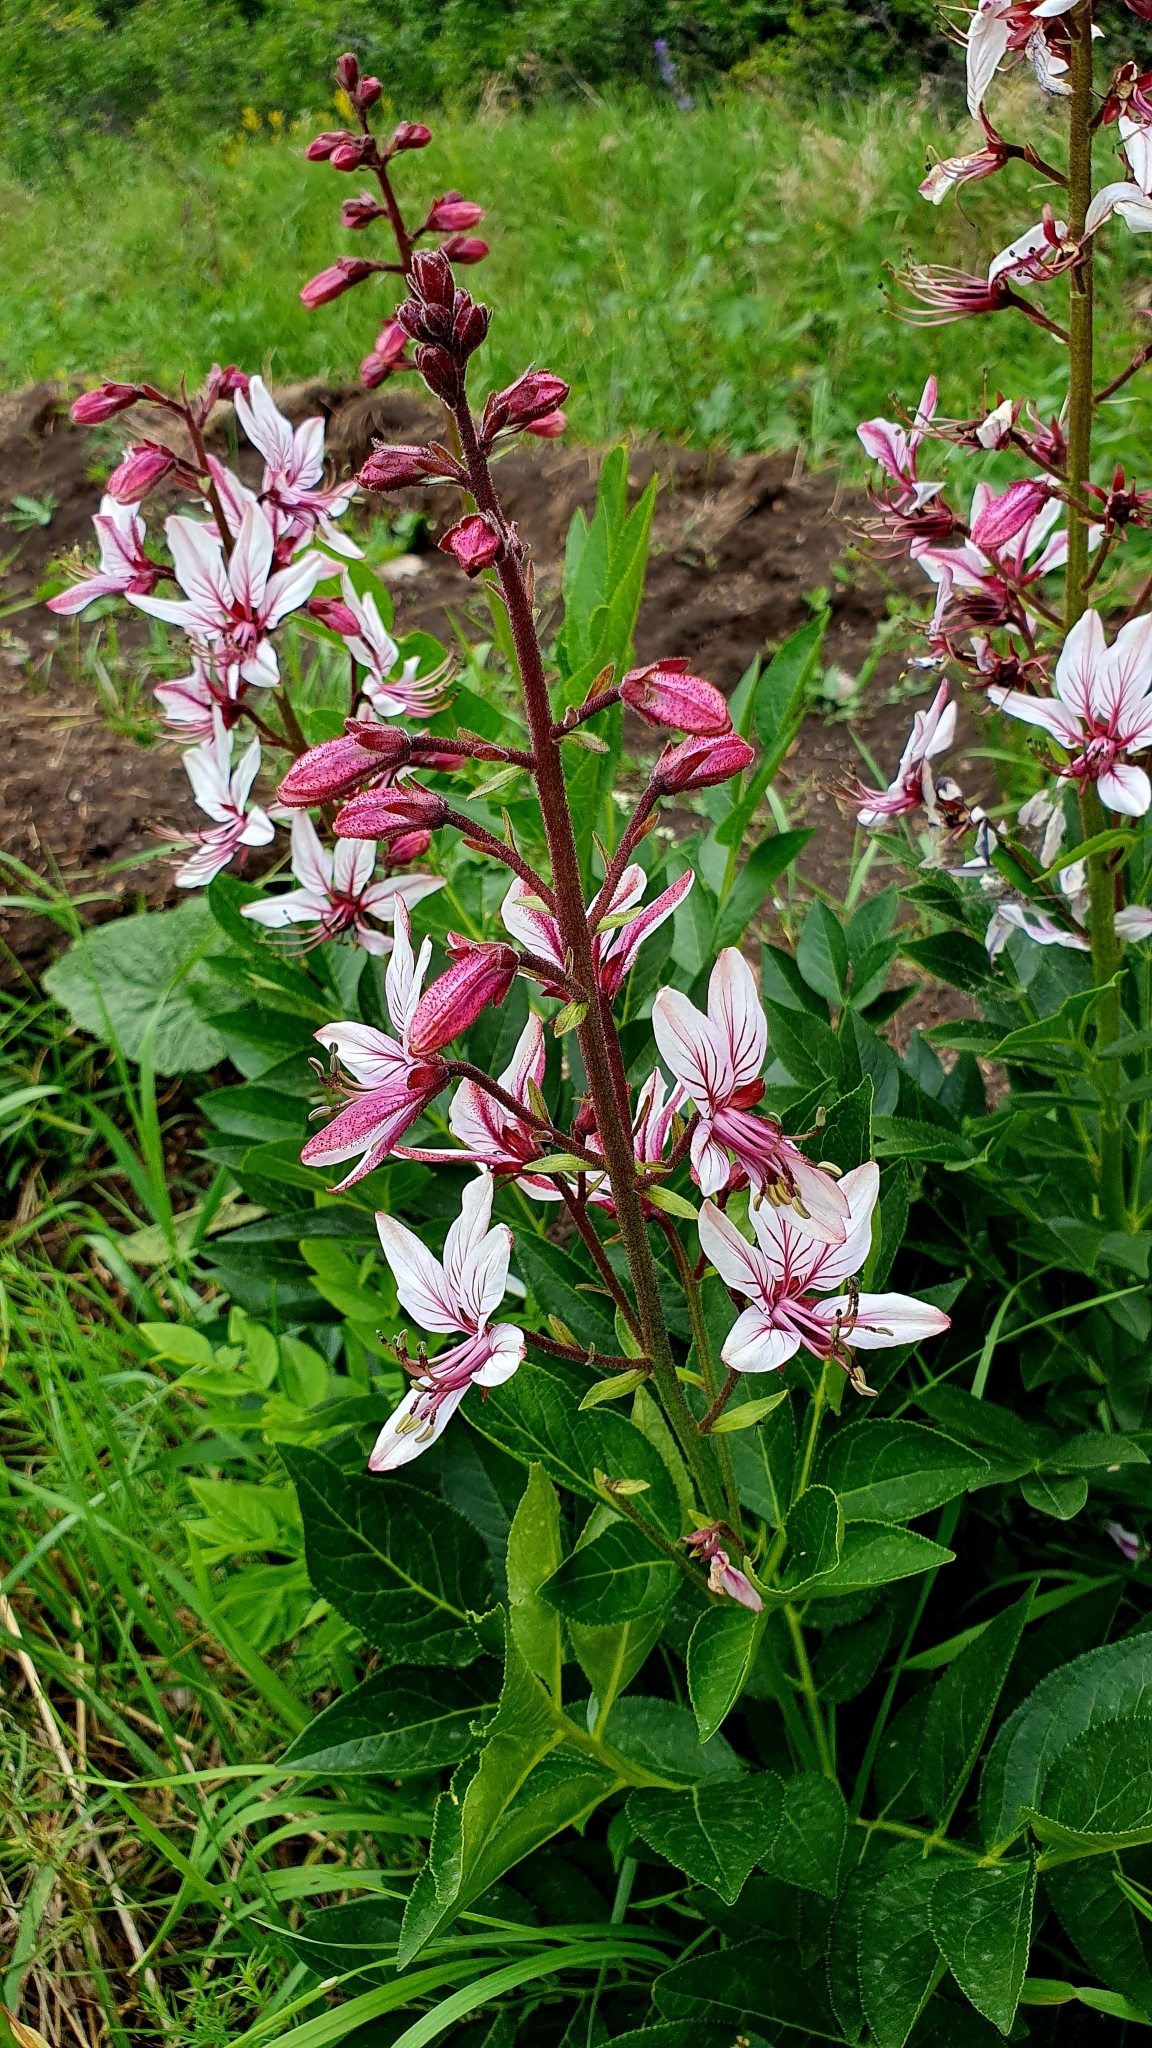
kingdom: Plantae
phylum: Tracheophyta
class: Magnoliopsida
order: Sapindales
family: Rutaceae
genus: Dictamnus
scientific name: Dictamnus albus
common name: Gasplant
